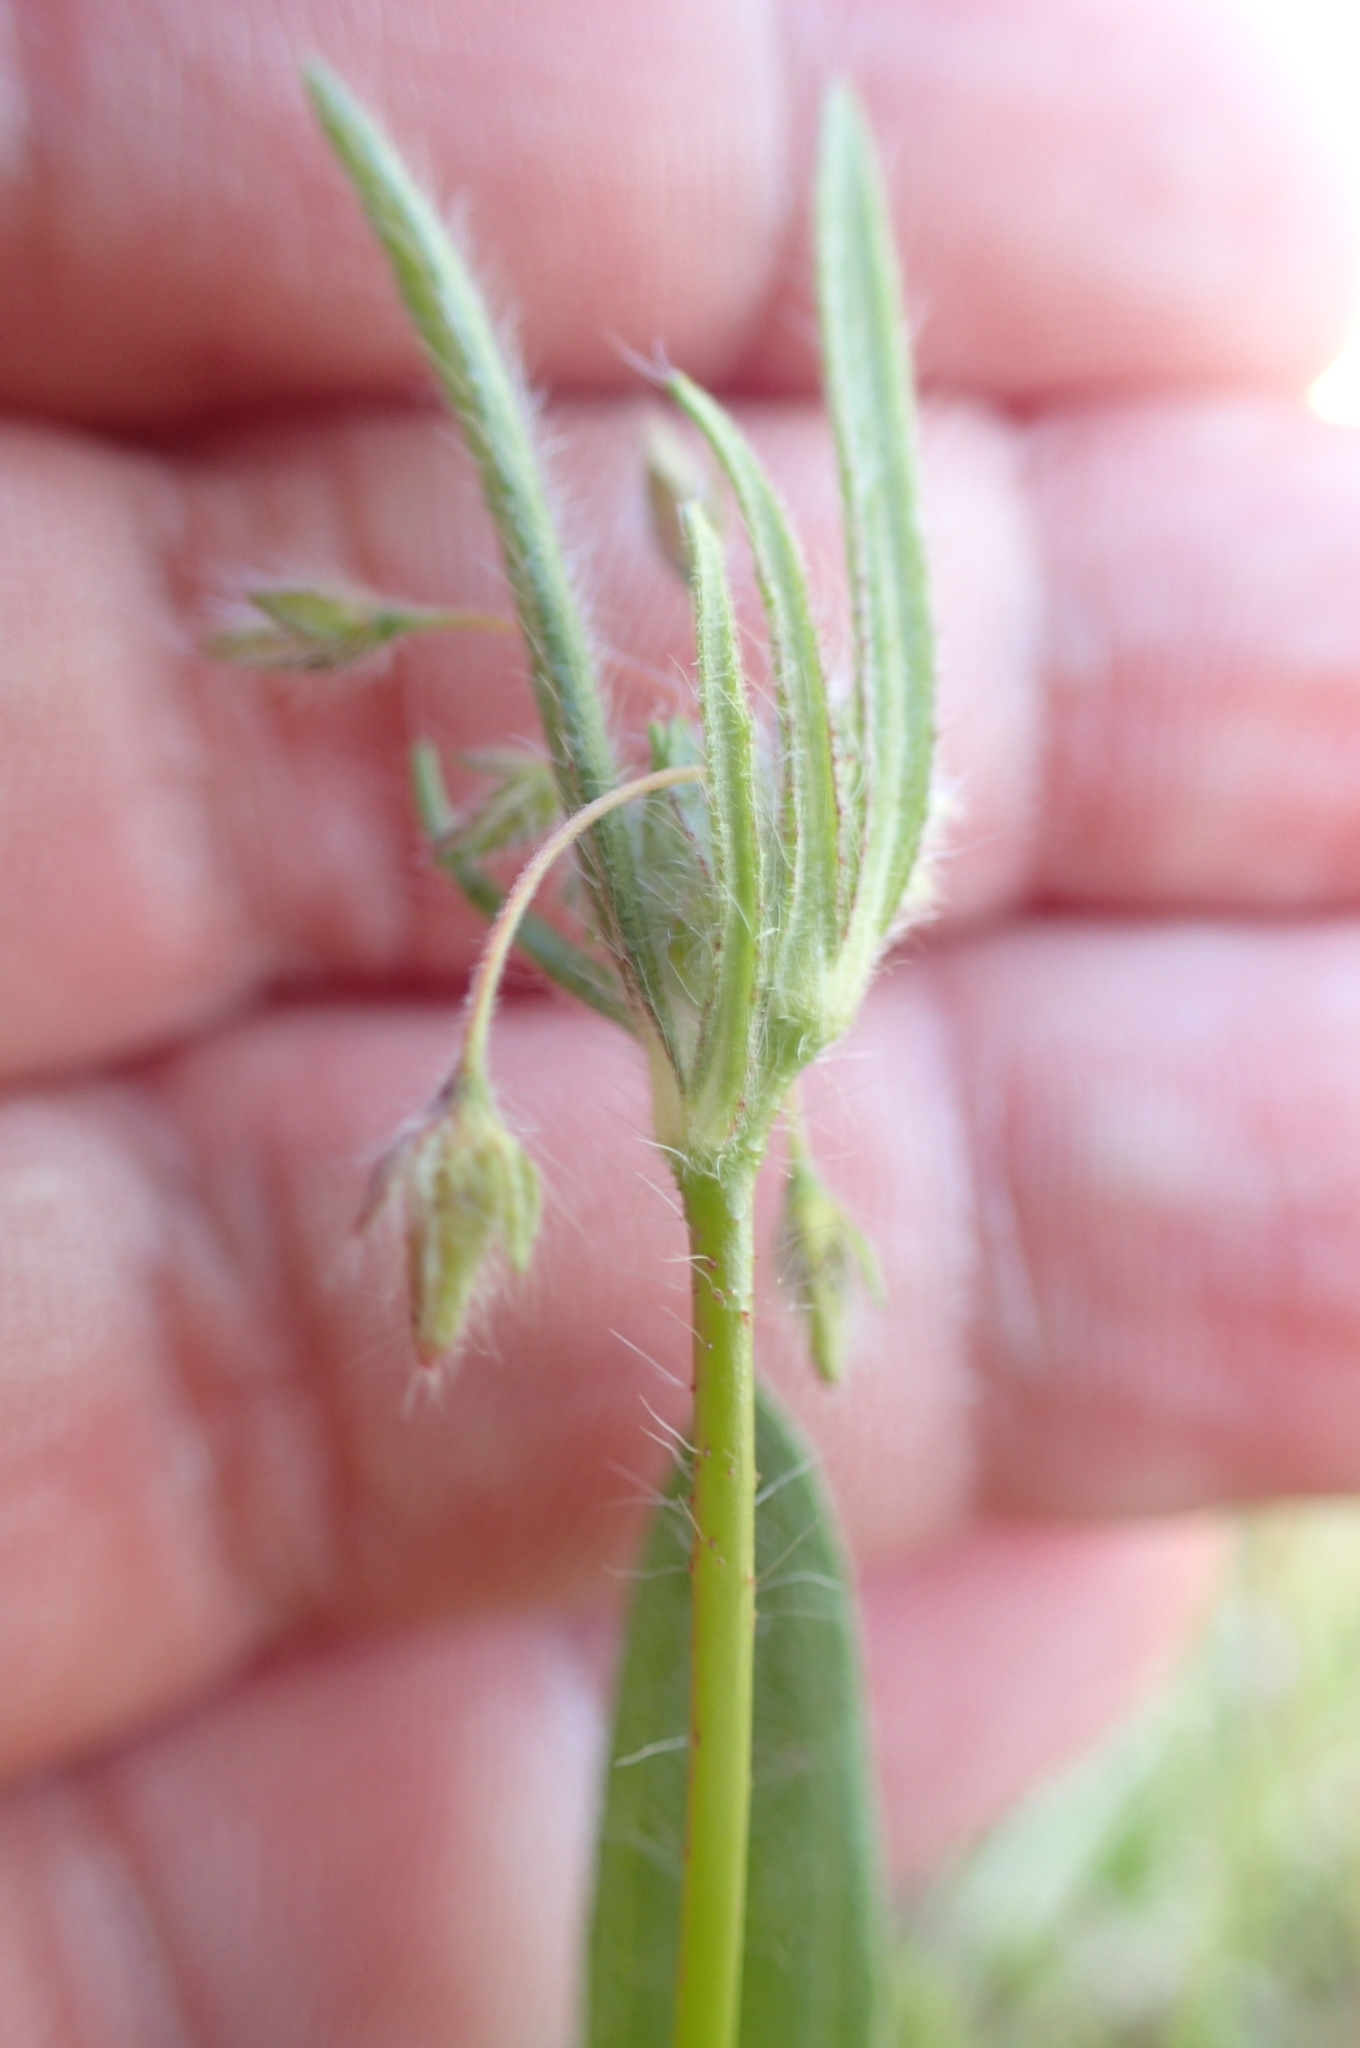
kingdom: Plantae
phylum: Tracheophyta
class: Magnoliopsida
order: Malvales
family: Cistaceae
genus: Tuberaria
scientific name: Tuberaria inconspicua
